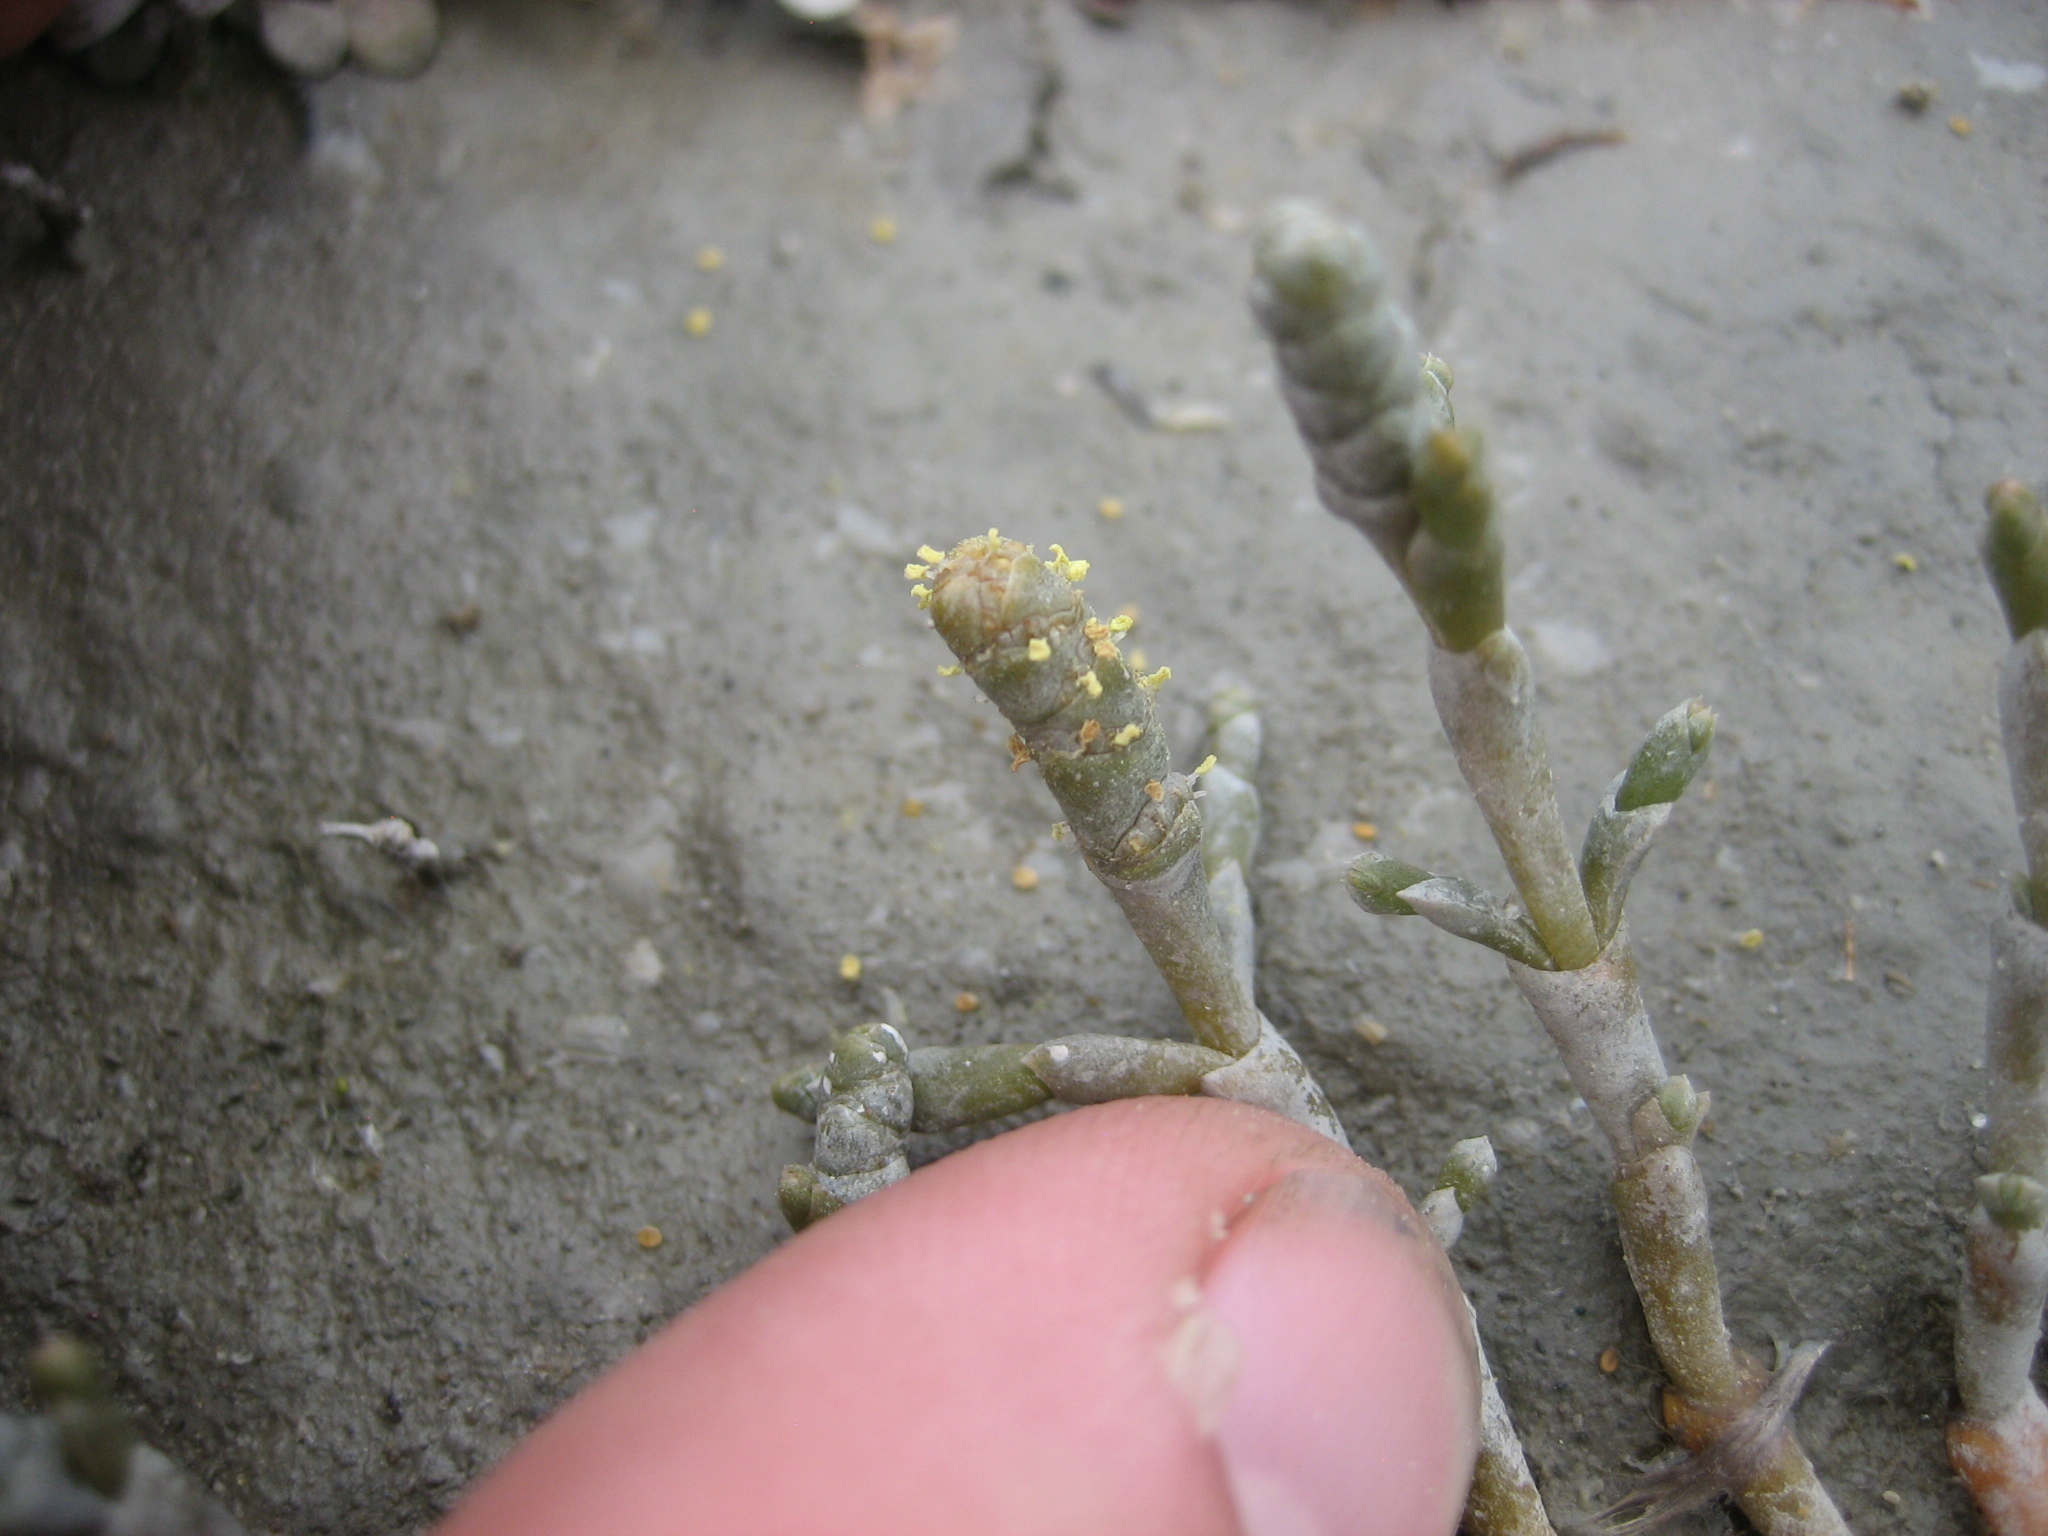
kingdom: Plantae
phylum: Tracheophyta
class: Magnoliopsida
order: Caryophyllales
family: Amaranthaceae
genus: Salicornia
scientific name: Salicornia quinqueflora
